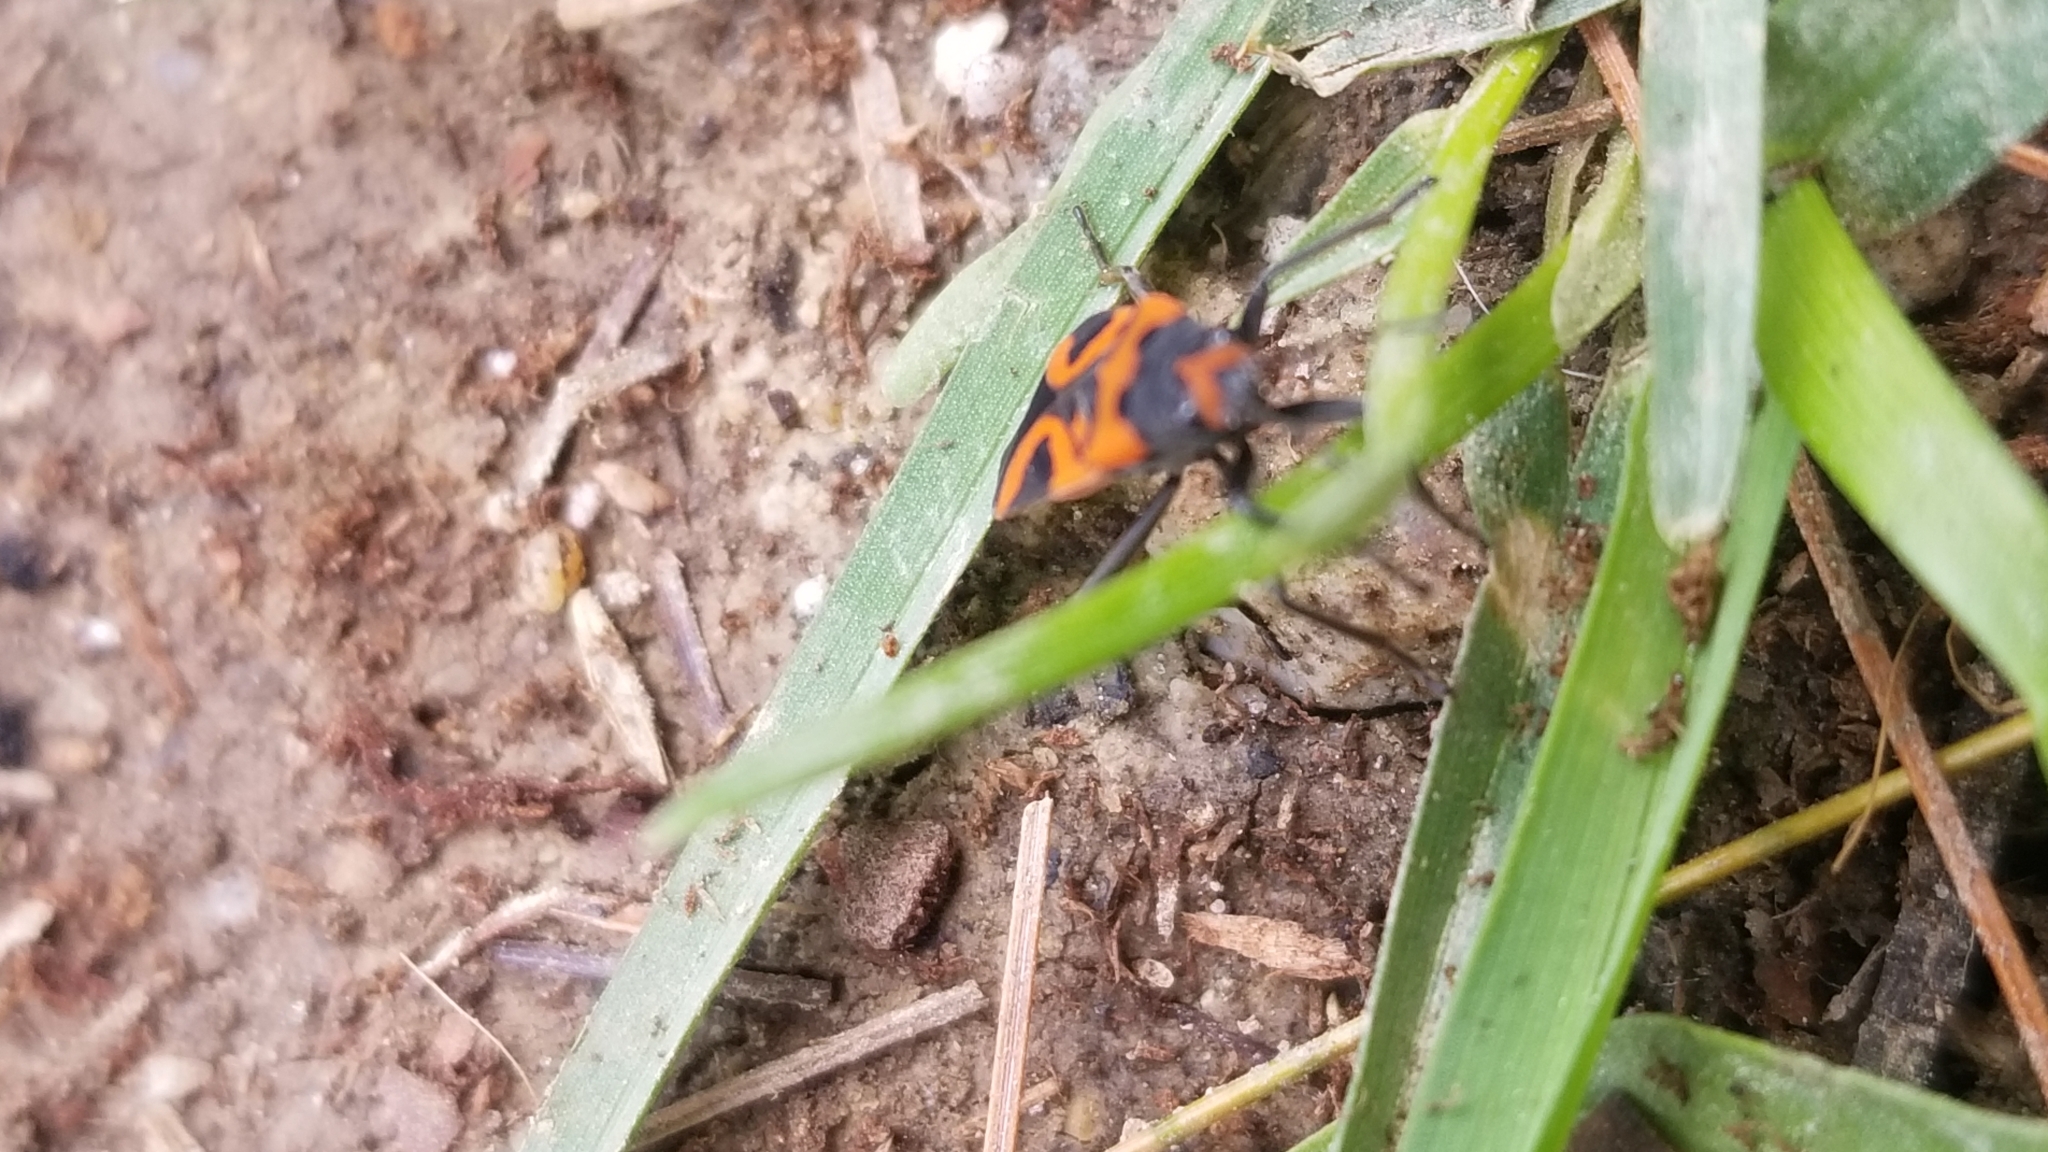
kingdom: Animalia
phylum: Arthropoda
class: Insecta
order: Hemiptera
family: Lygaeidae
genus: Lygaeus
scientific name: Lygaeus turcicus
